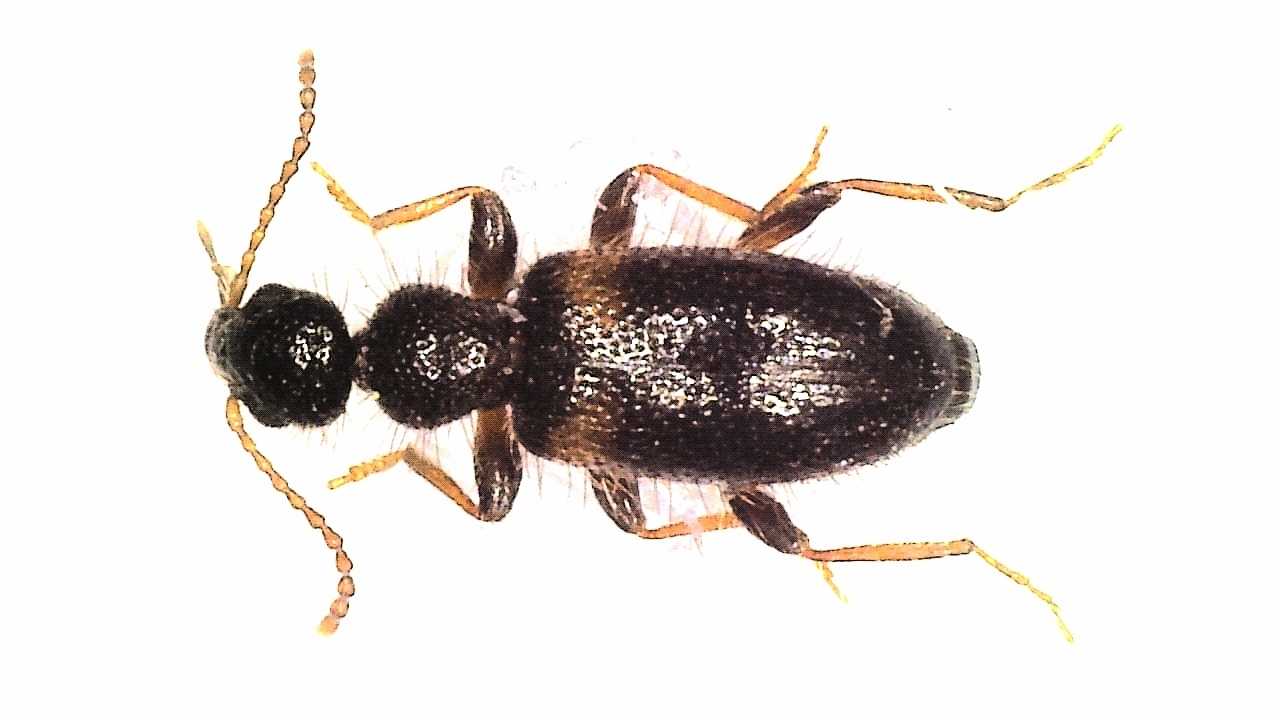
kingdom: Animalia
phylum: Arthropoda
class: Insecta
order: Coleoptera
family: Anthicidae
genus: Hirticollis
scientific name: Hirticollis hispidus
